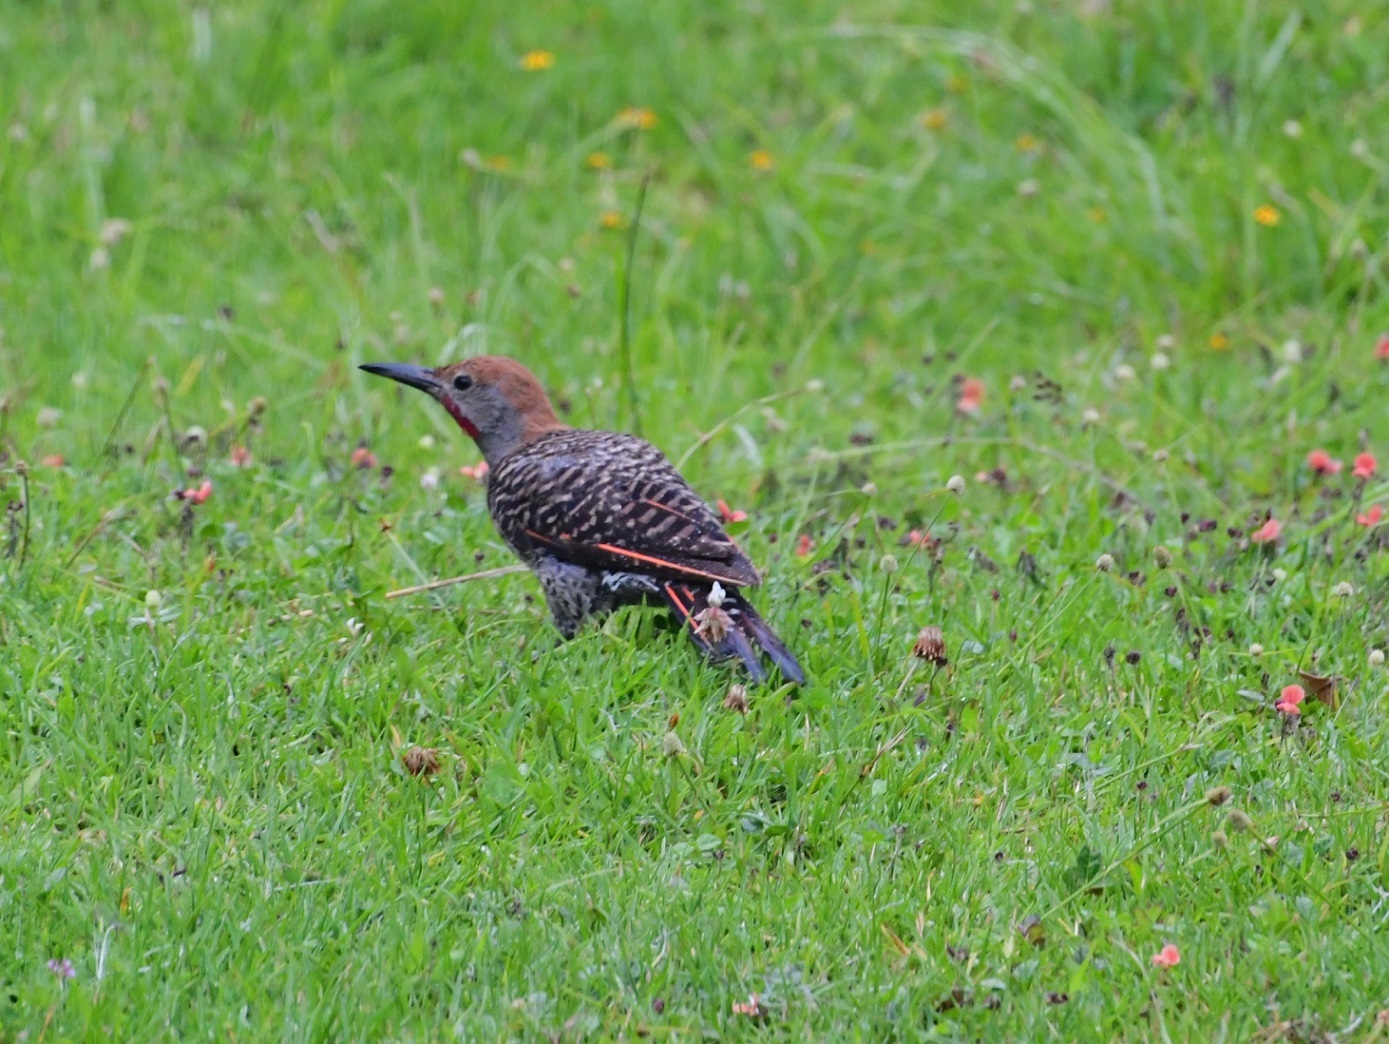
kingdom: Animalia
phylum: Chordata
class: Aves
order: Piciformes
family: Picidae
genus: Colaptes
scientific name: Colaptes auratus
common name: Northern flicker
